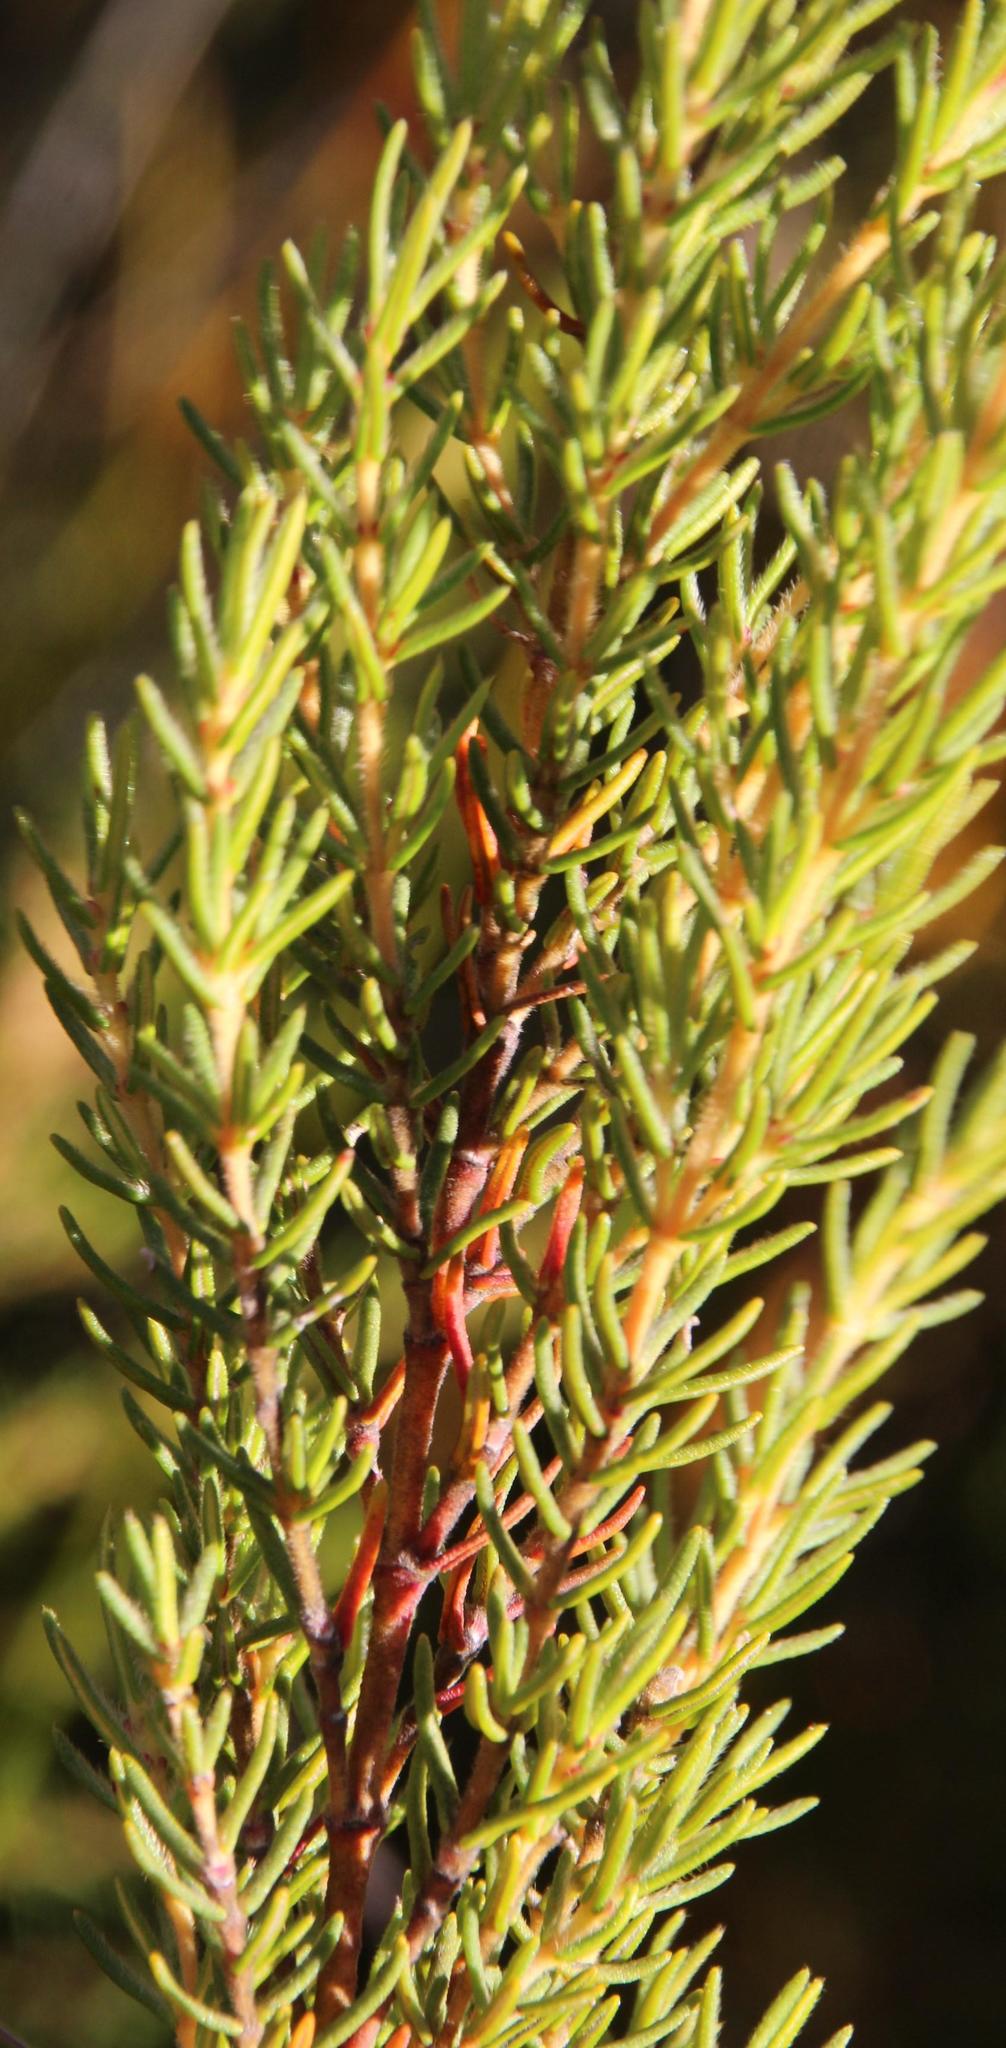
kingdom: Plantae
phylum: Tracheophyta
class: Magnoliopsida
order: Cornales
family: Grubbiaceae
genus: Grubbia
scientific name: Grubbia rosmarinifolia
